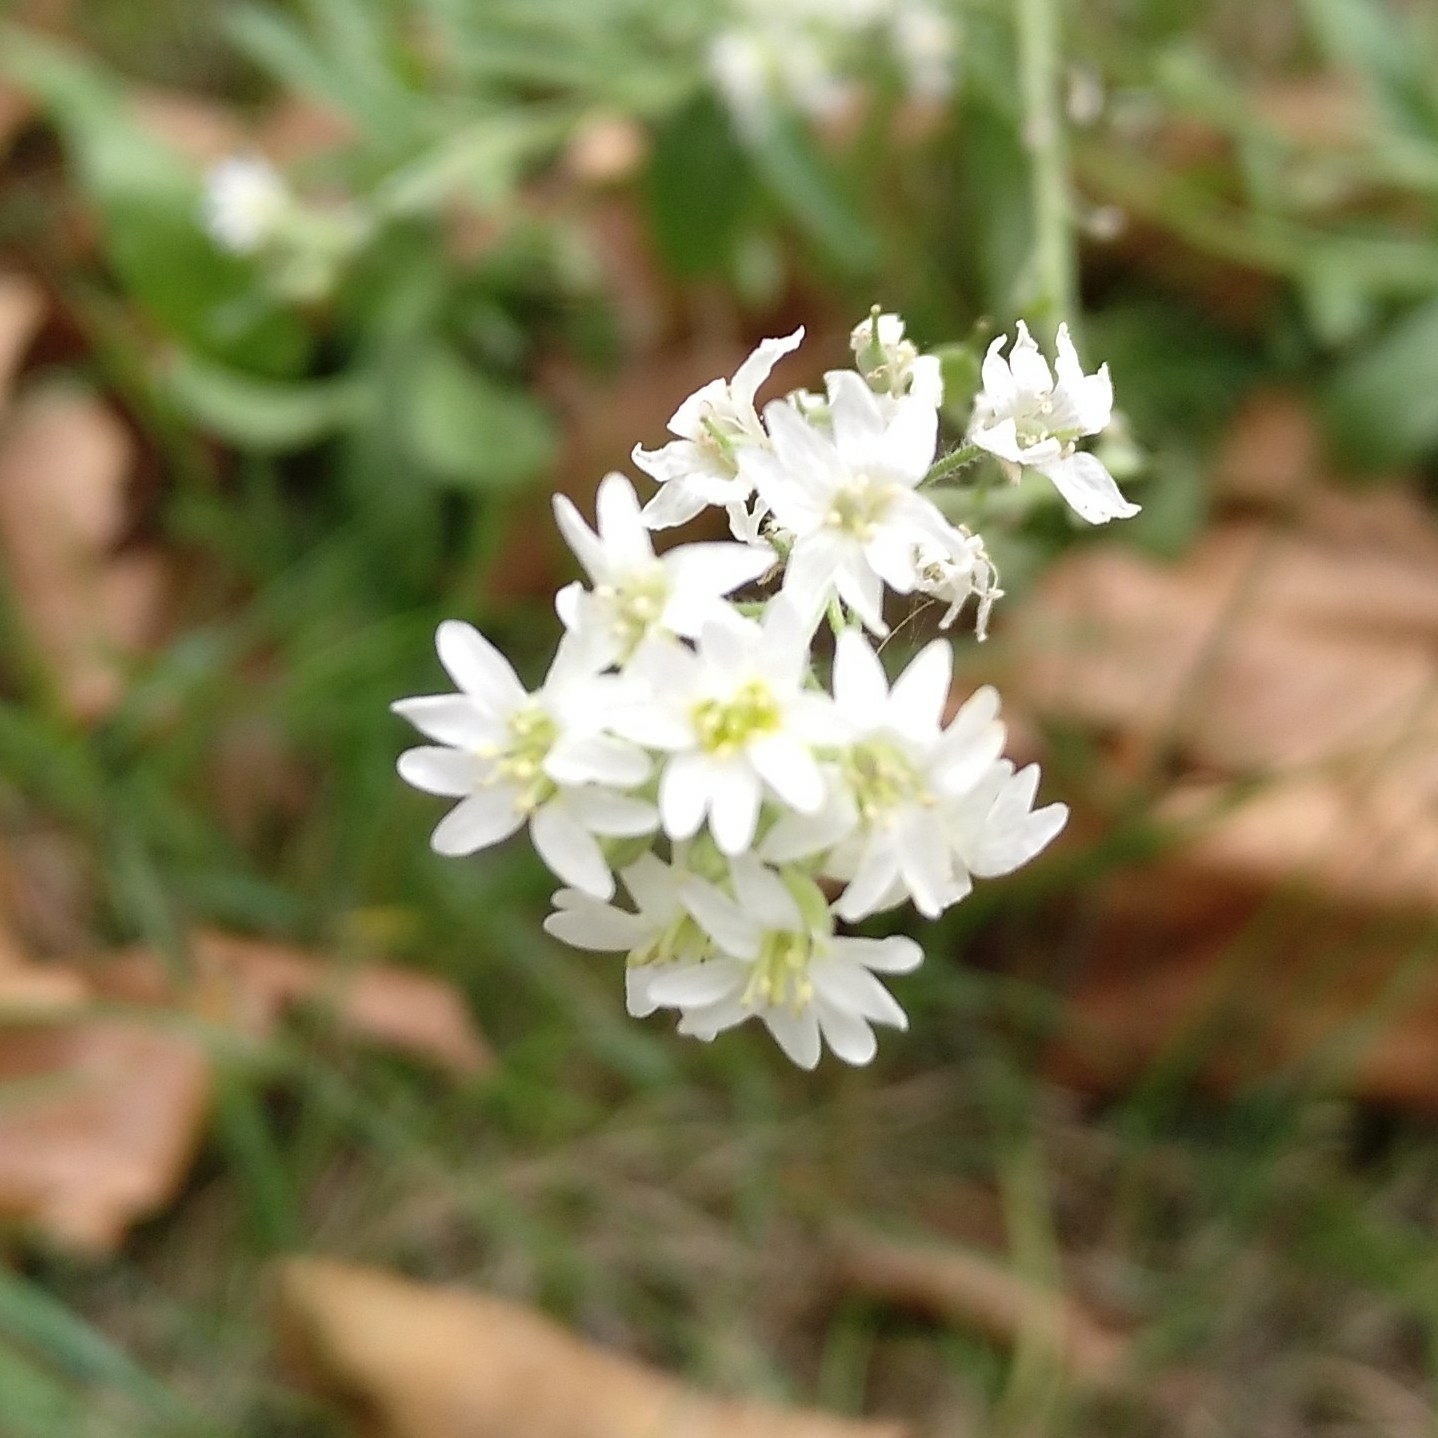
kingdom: Plantae
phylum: Tracheophyta
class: Magnoliopsida
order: Brassicales
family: Brassicaceae
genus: Berteroa
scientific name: Berteroa incana
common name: Hoary alison
